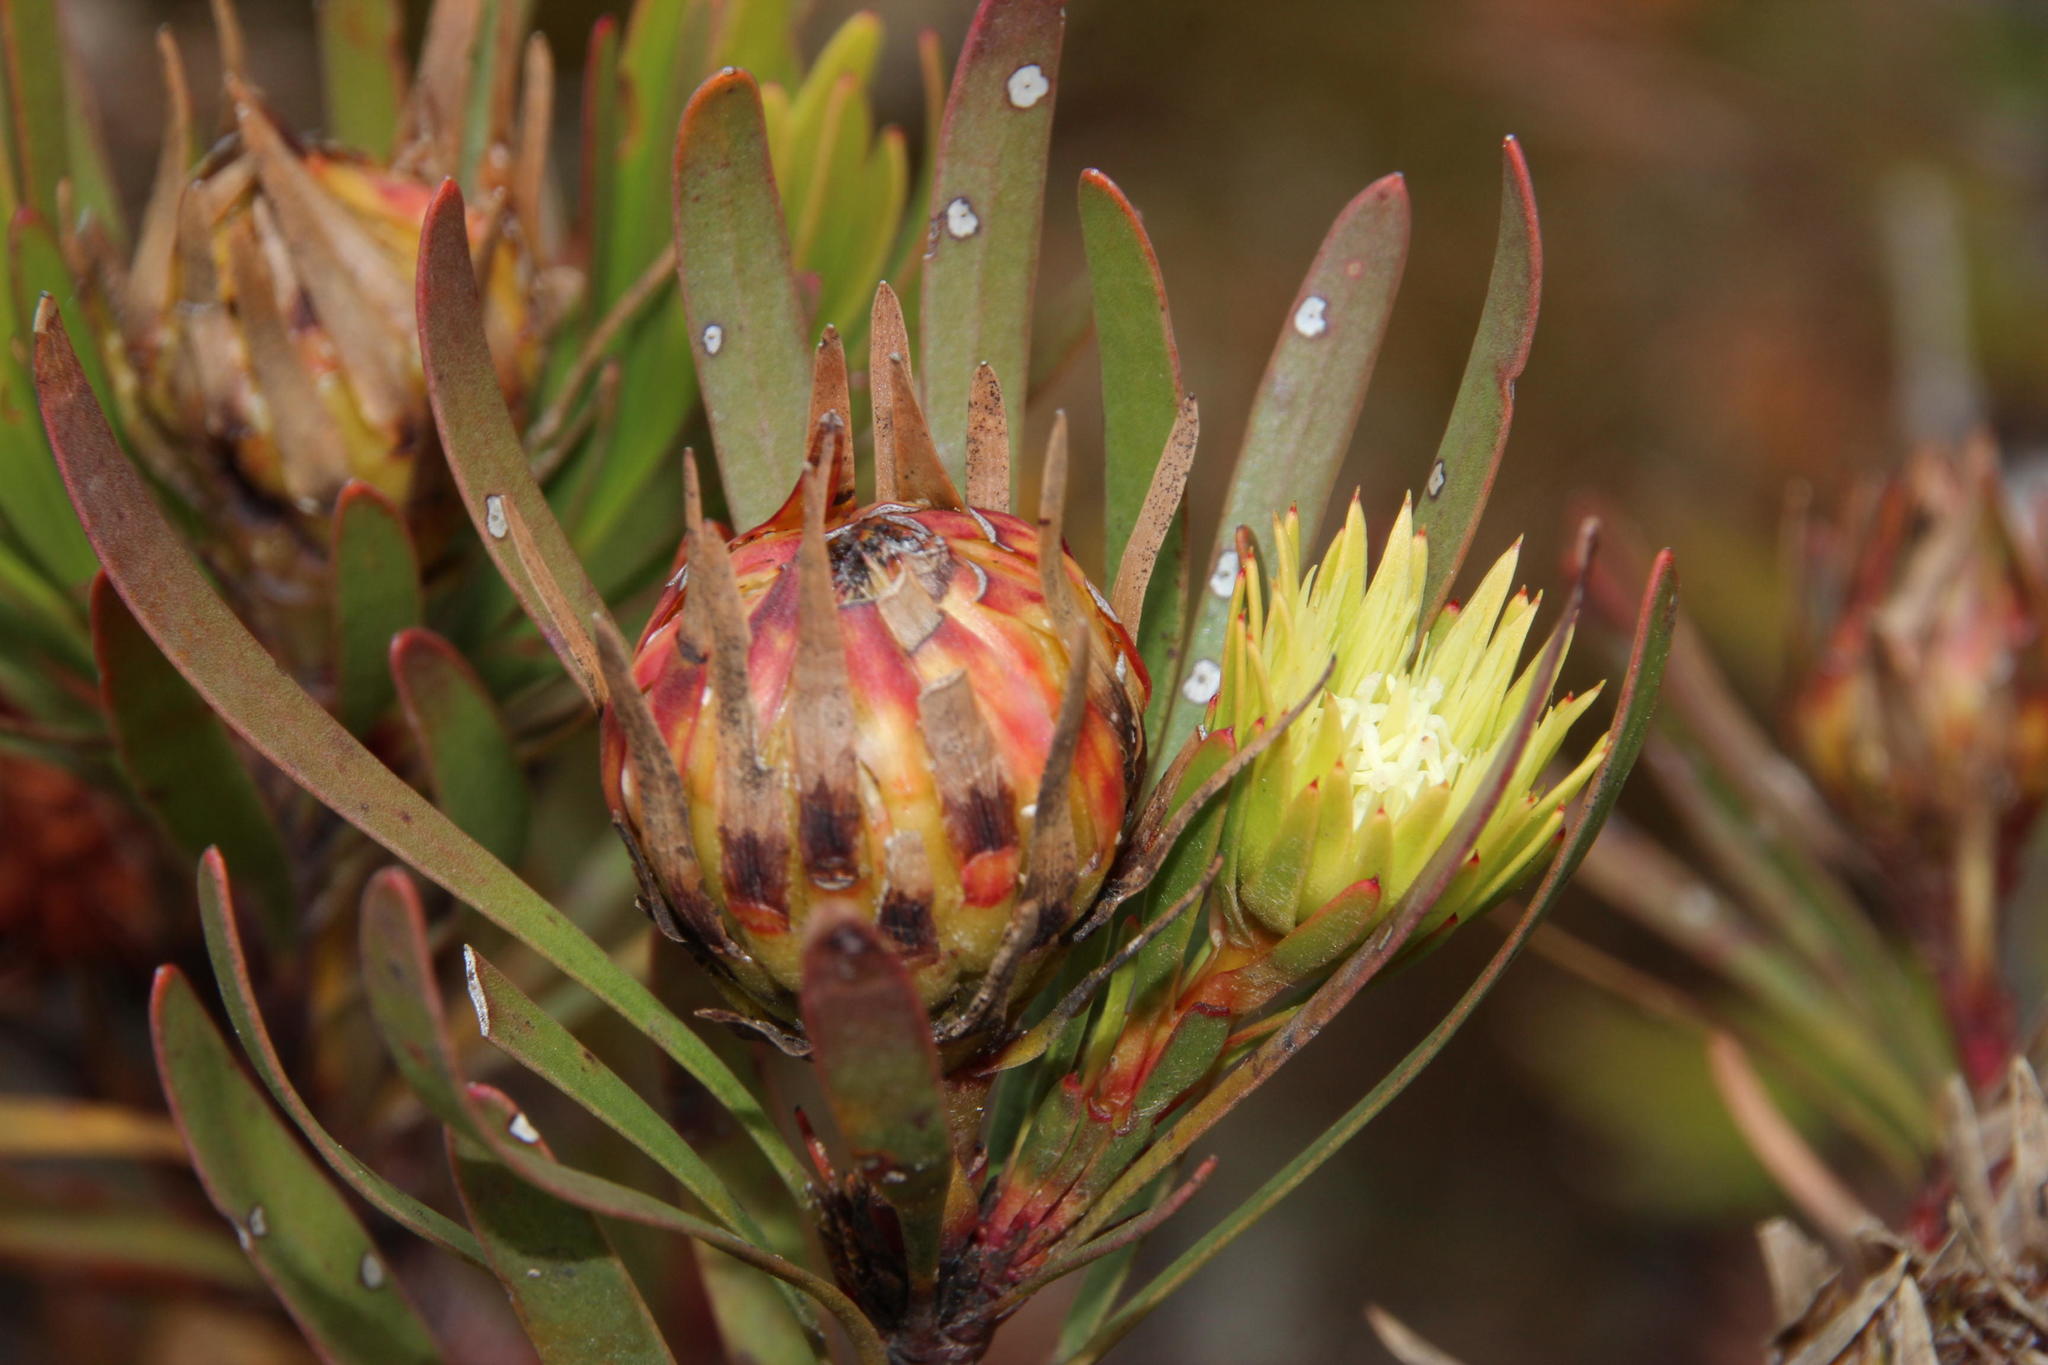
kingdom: Plantae
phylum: Tracheophyta
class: Magnoliopsida
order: Proteales
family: Proteaceae
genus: Aulax
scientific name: Aulax umbellata
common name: Broad-leaf featherbush
